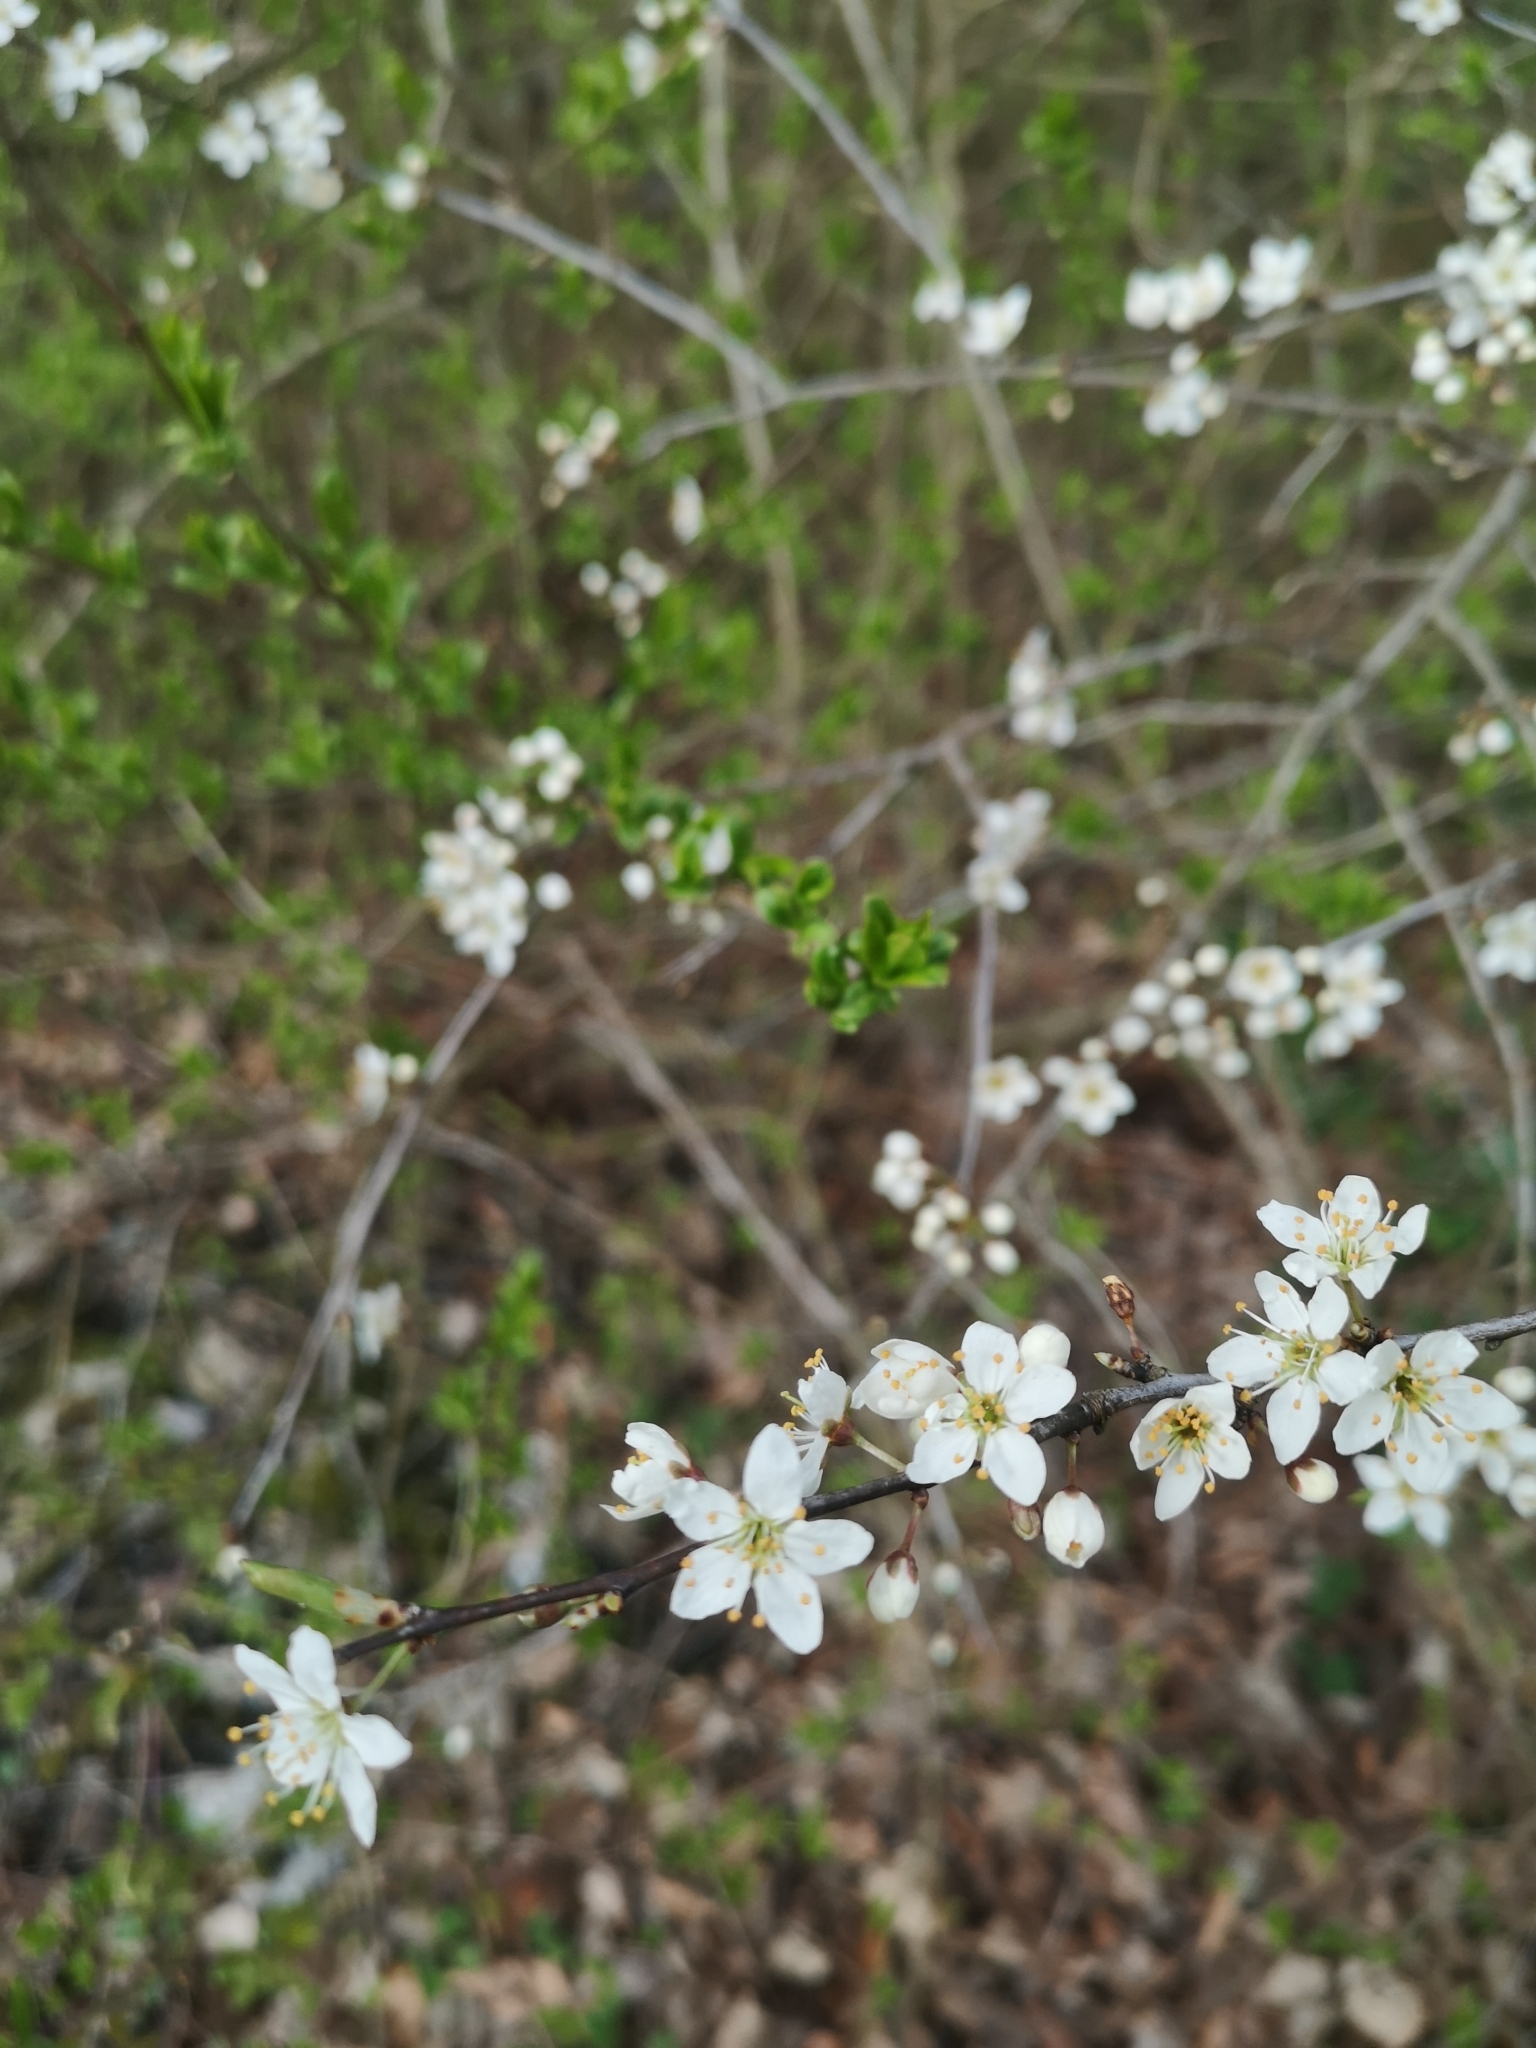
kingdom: Plantae
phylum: Tracheophyta
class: Magnoliopsida
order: Rosales
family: Rosaceae
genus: Prunus
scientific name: Prunus spinosa
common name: Blackthorn
